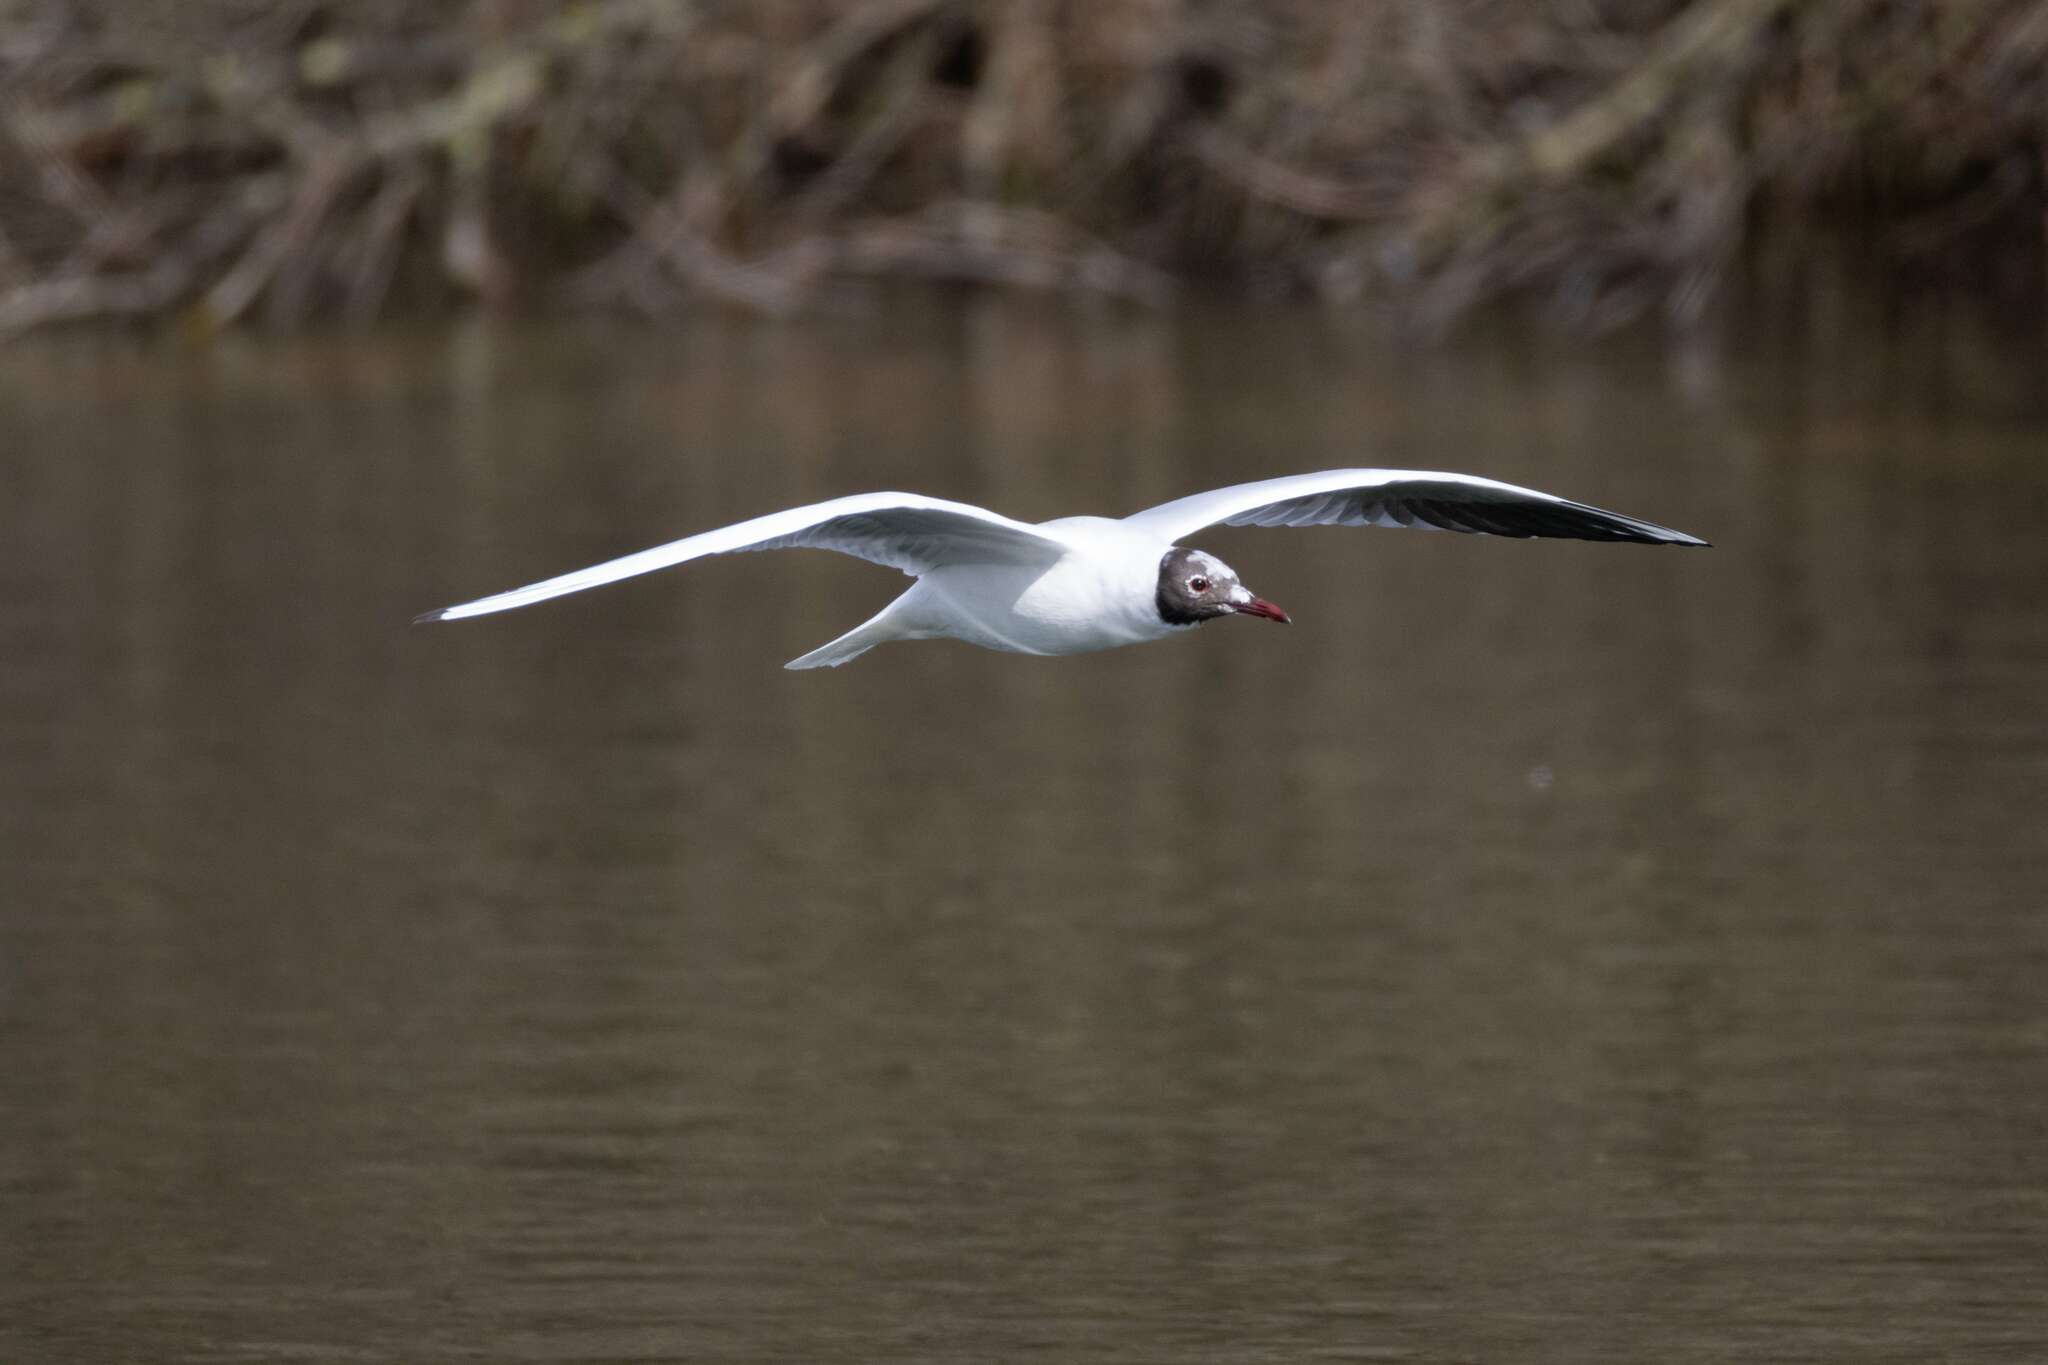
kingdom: Animalia
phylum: Chordata
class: Aves
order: Charadriiformes
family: Laridae
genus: Chroicocephalus
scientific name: Chroicocephalus ridibundus
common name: Black-headed gull
